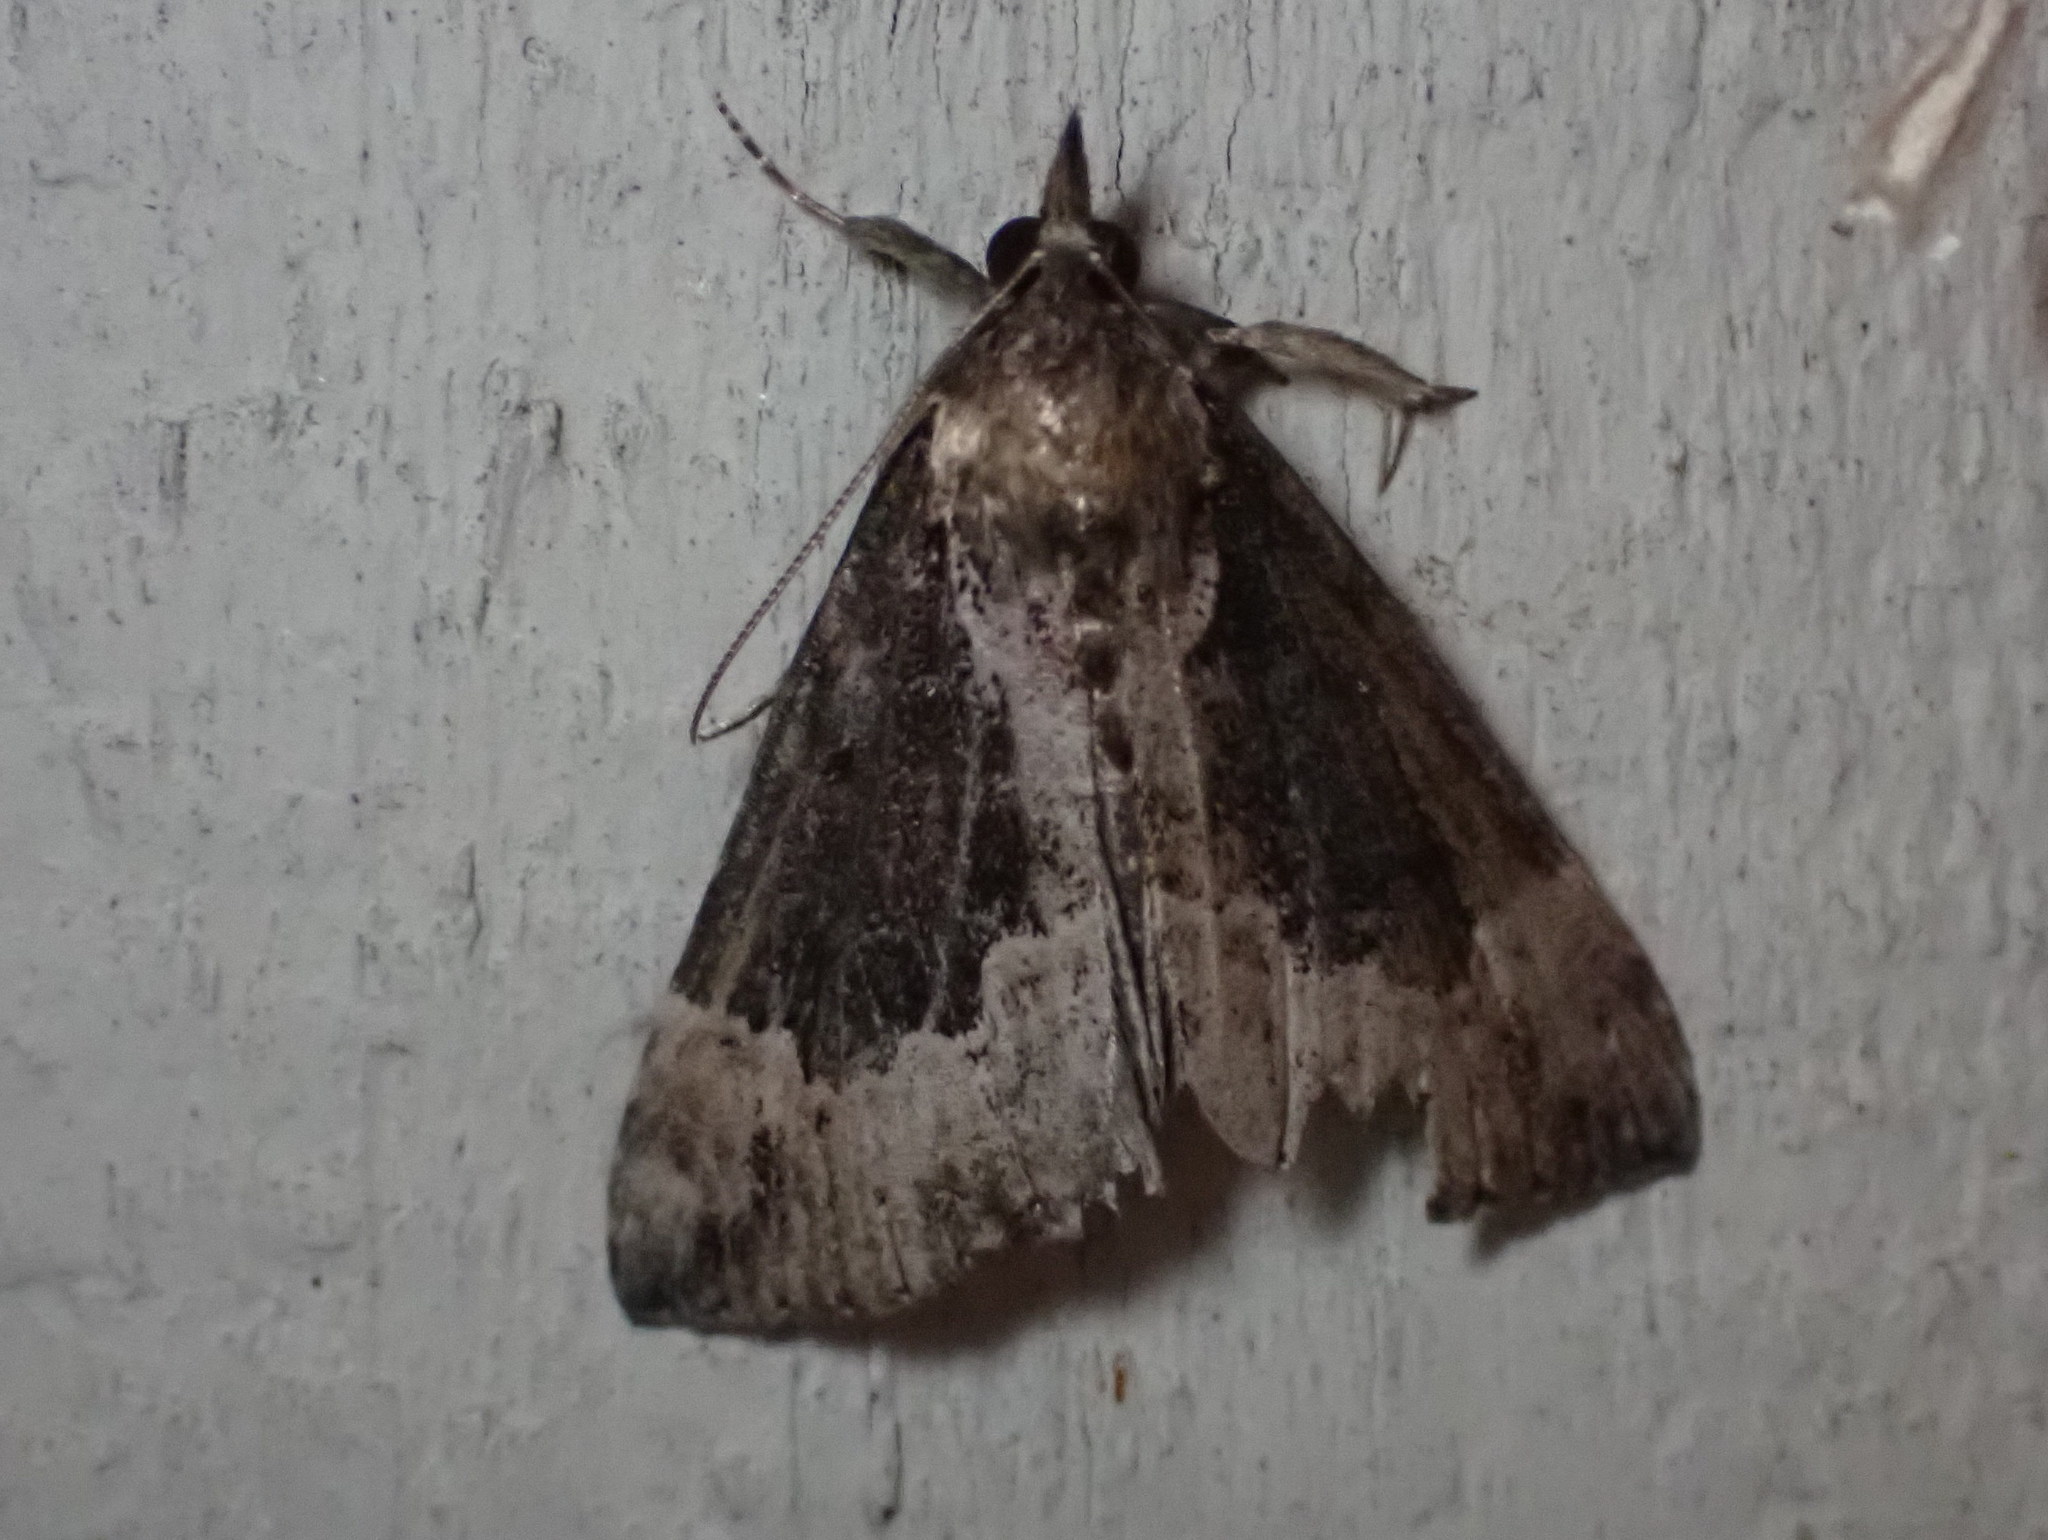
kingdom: Animalia
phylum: Arthropoda
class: Insecta
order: Lepidoptera
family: Erebidae
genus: Hypena
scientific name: Hypena baltimoralis
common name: Baltimore snout
